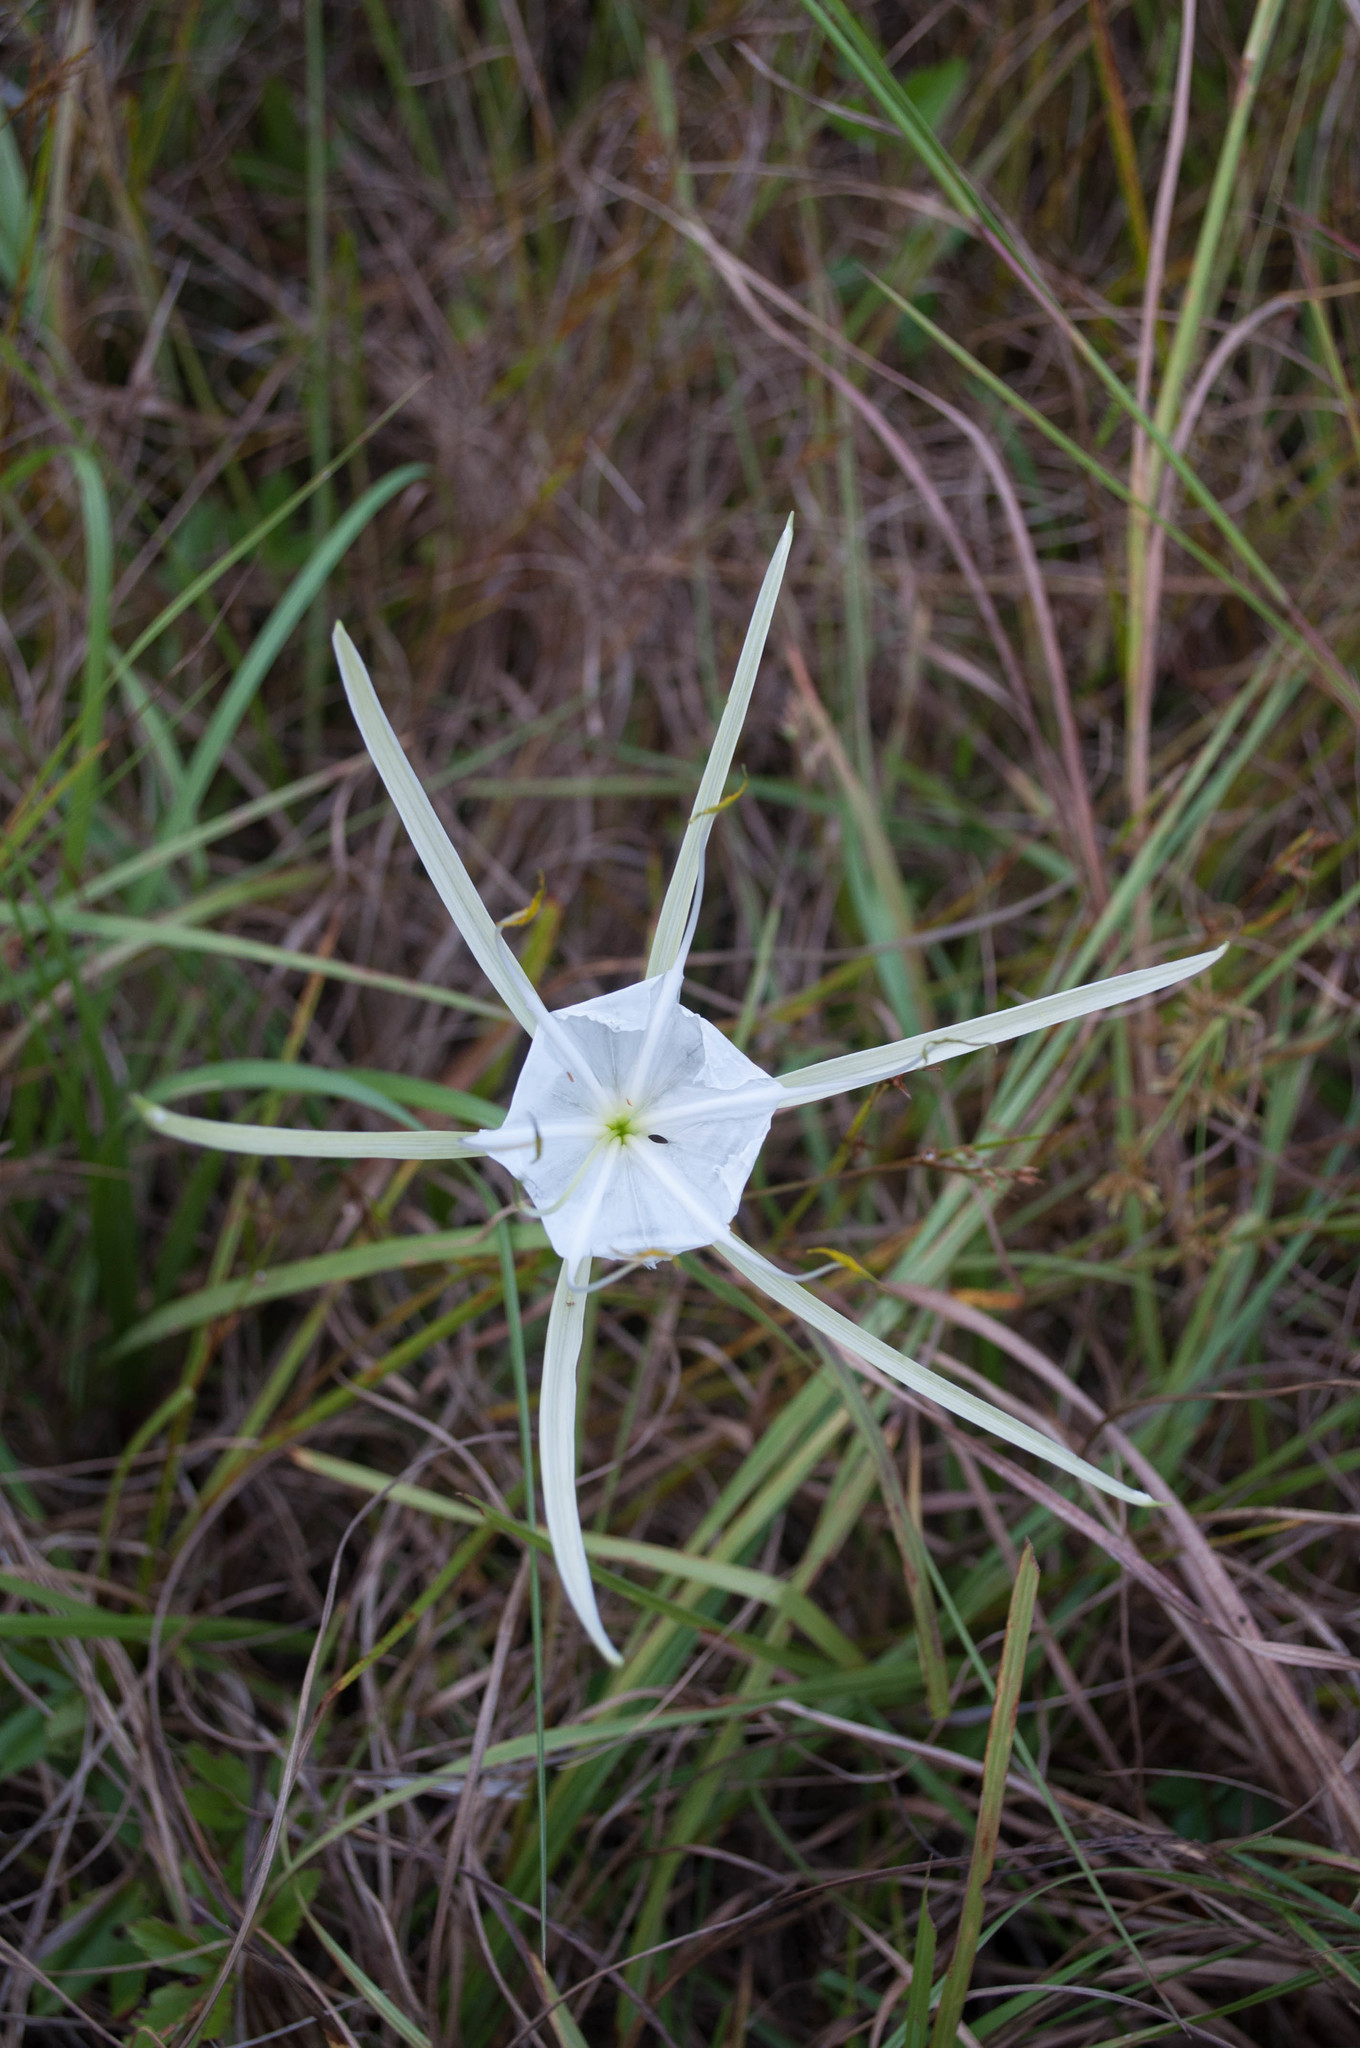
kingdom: Plantae
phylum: Tracheophyta
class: Liliopsida
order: Asparagales
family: Amaryllidaceae
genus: Hymenocallis
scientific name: Hymenocallis palmeri
